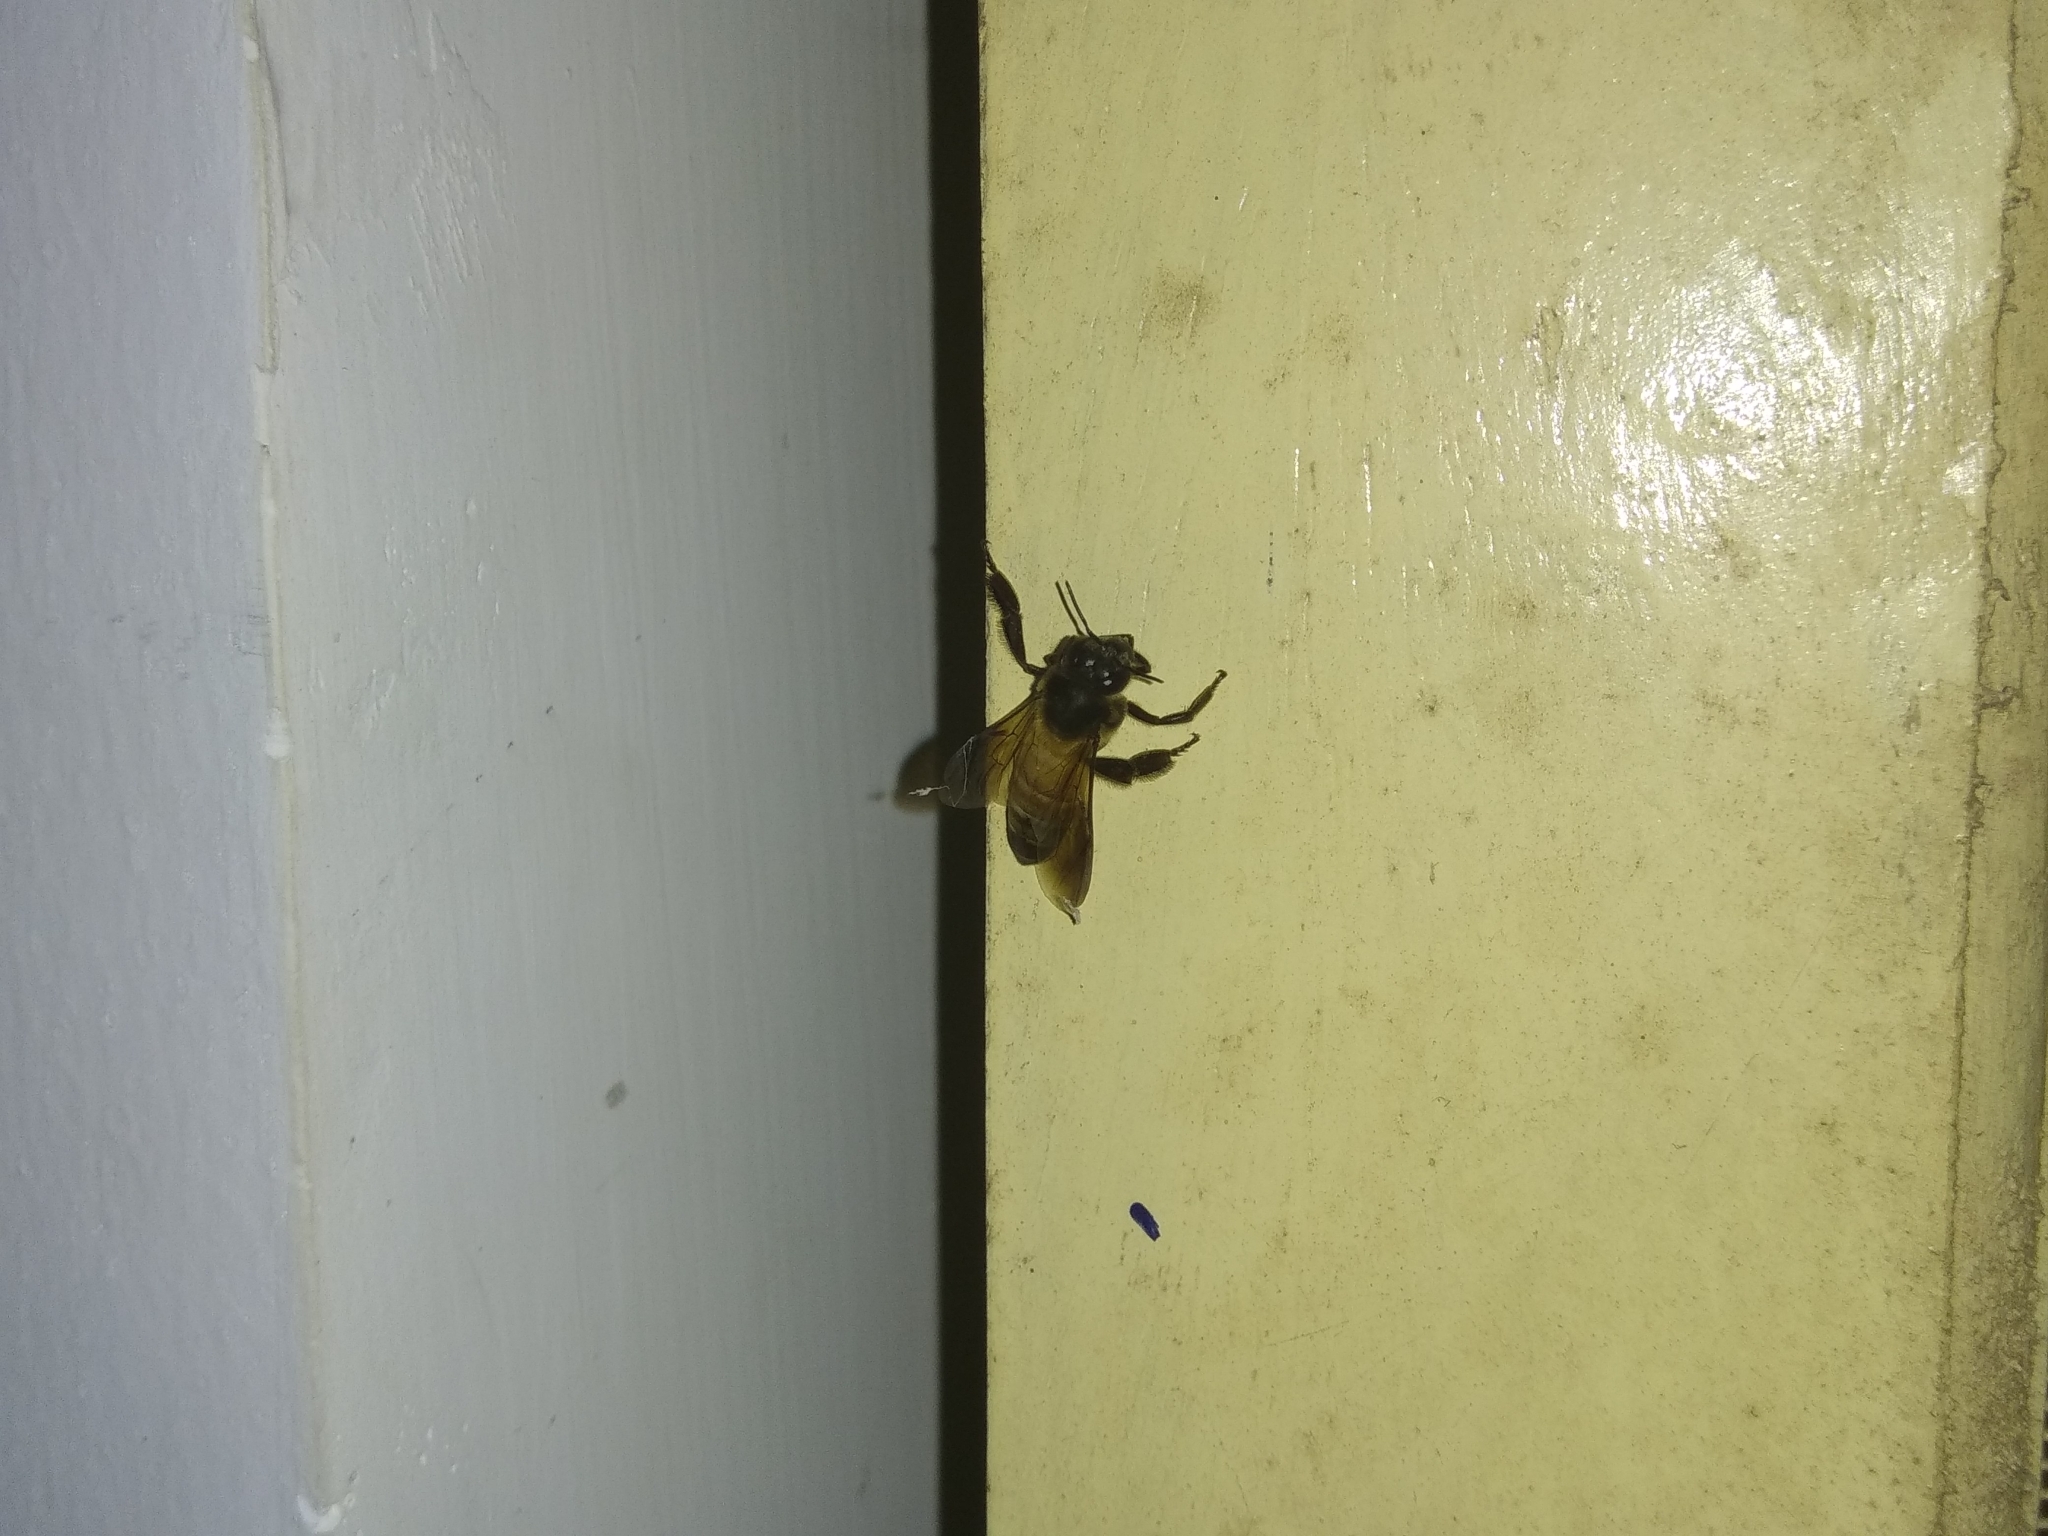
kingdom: Animalia
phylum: Arthropoda
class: Insecta
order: Hymenoptera
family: Apidae
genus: Apis
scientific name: Apis dorsata
